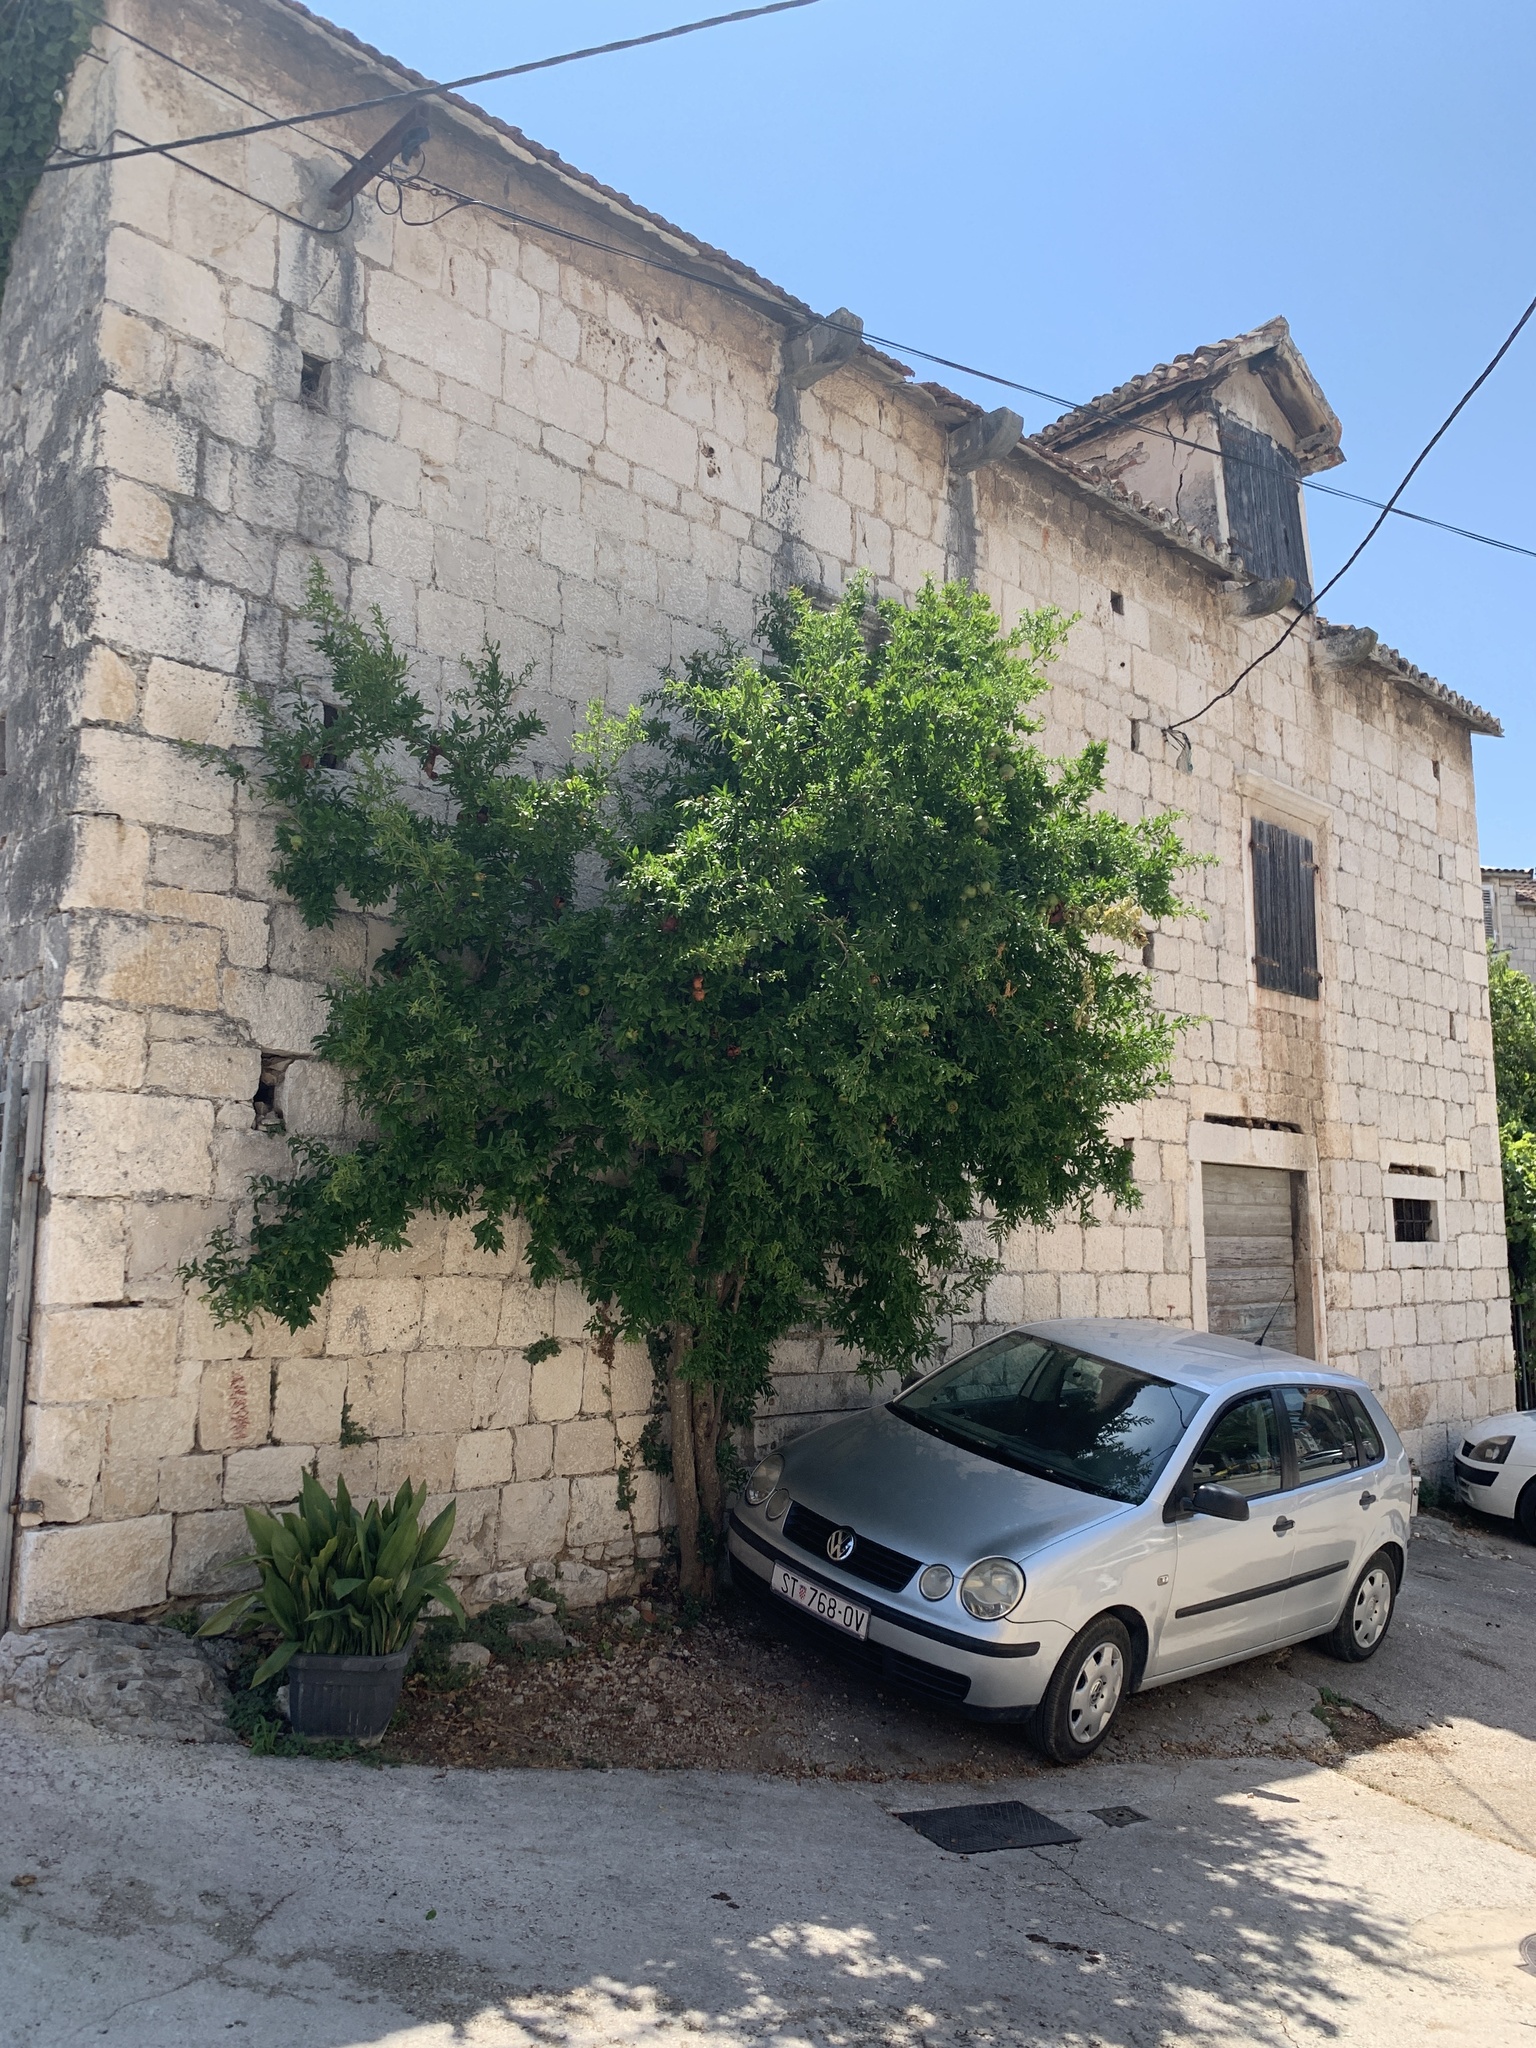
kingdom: Plantae
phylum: Tracheophyta
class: Magnoliopsida
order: Myrtales
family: Lythraceae
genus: Punica
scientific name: Punica granatum
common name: Pomegranate
